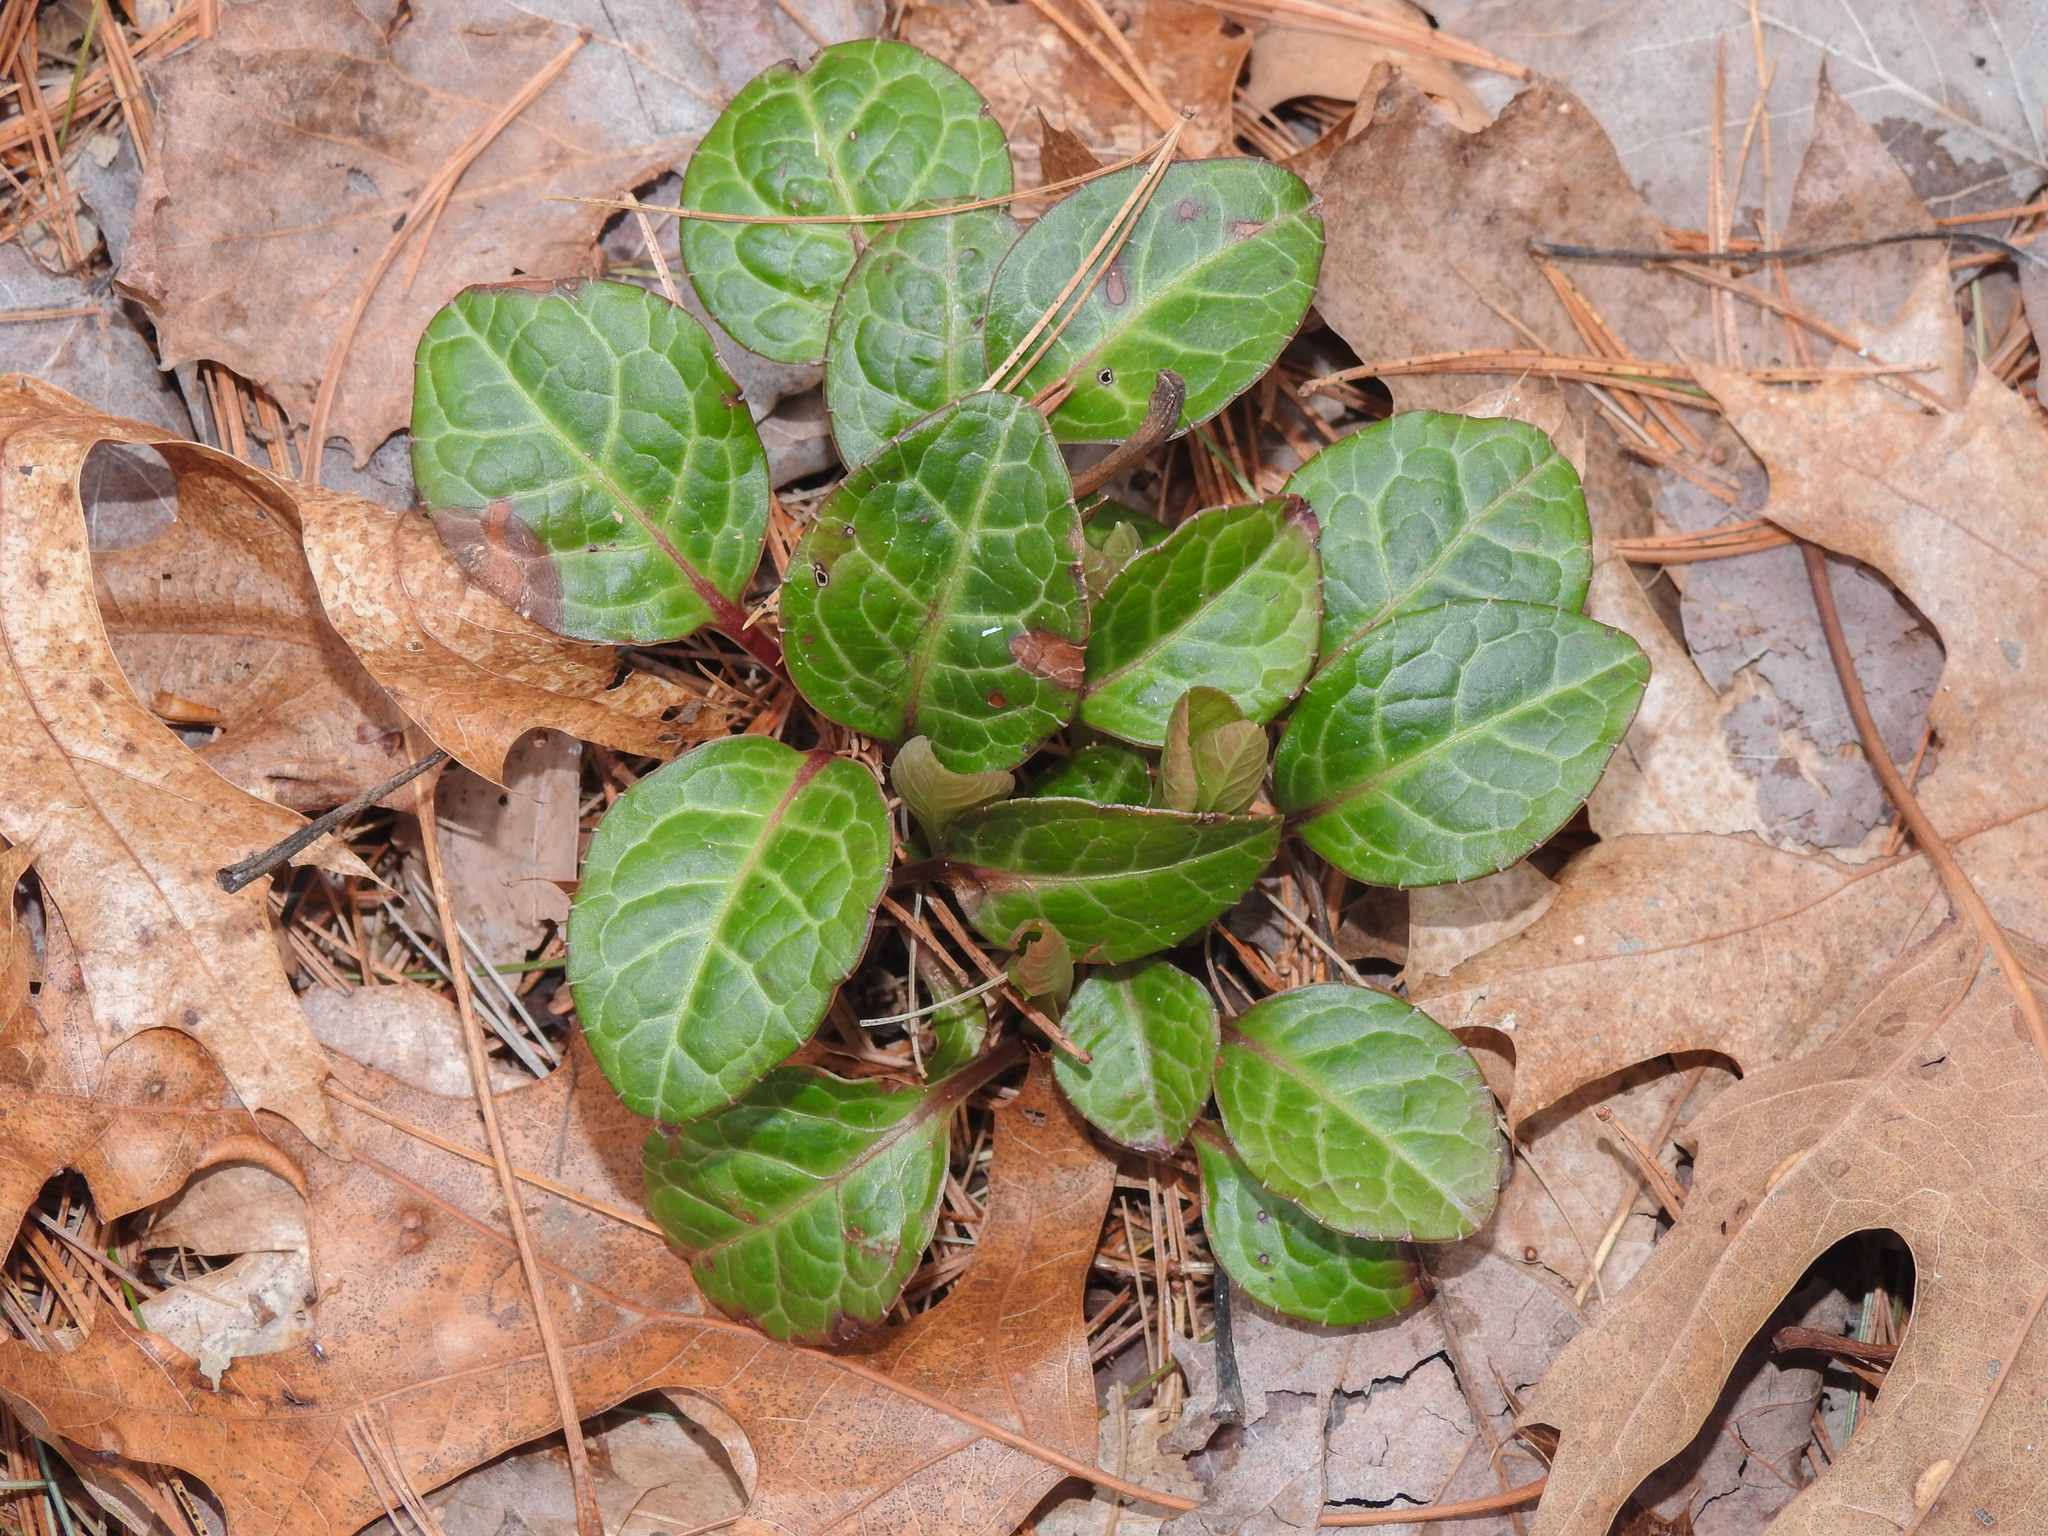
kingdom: Plantae
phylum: Tracheophyta
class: Magnoliopsida
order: Ericales
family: Ericaceae
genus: Pyrola
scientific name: Pyrola americana
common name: American wintergreen
